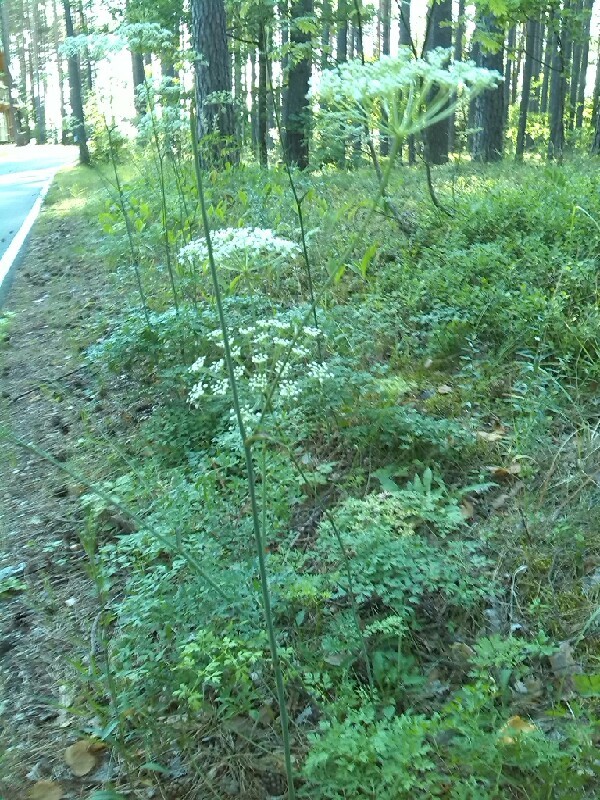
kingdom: Plantae
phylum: Tracheophyta
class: Magnoliopsida
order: Apiales
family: Apiaceae
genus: Oreoselinum
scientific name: Oreoselinum nigrum
